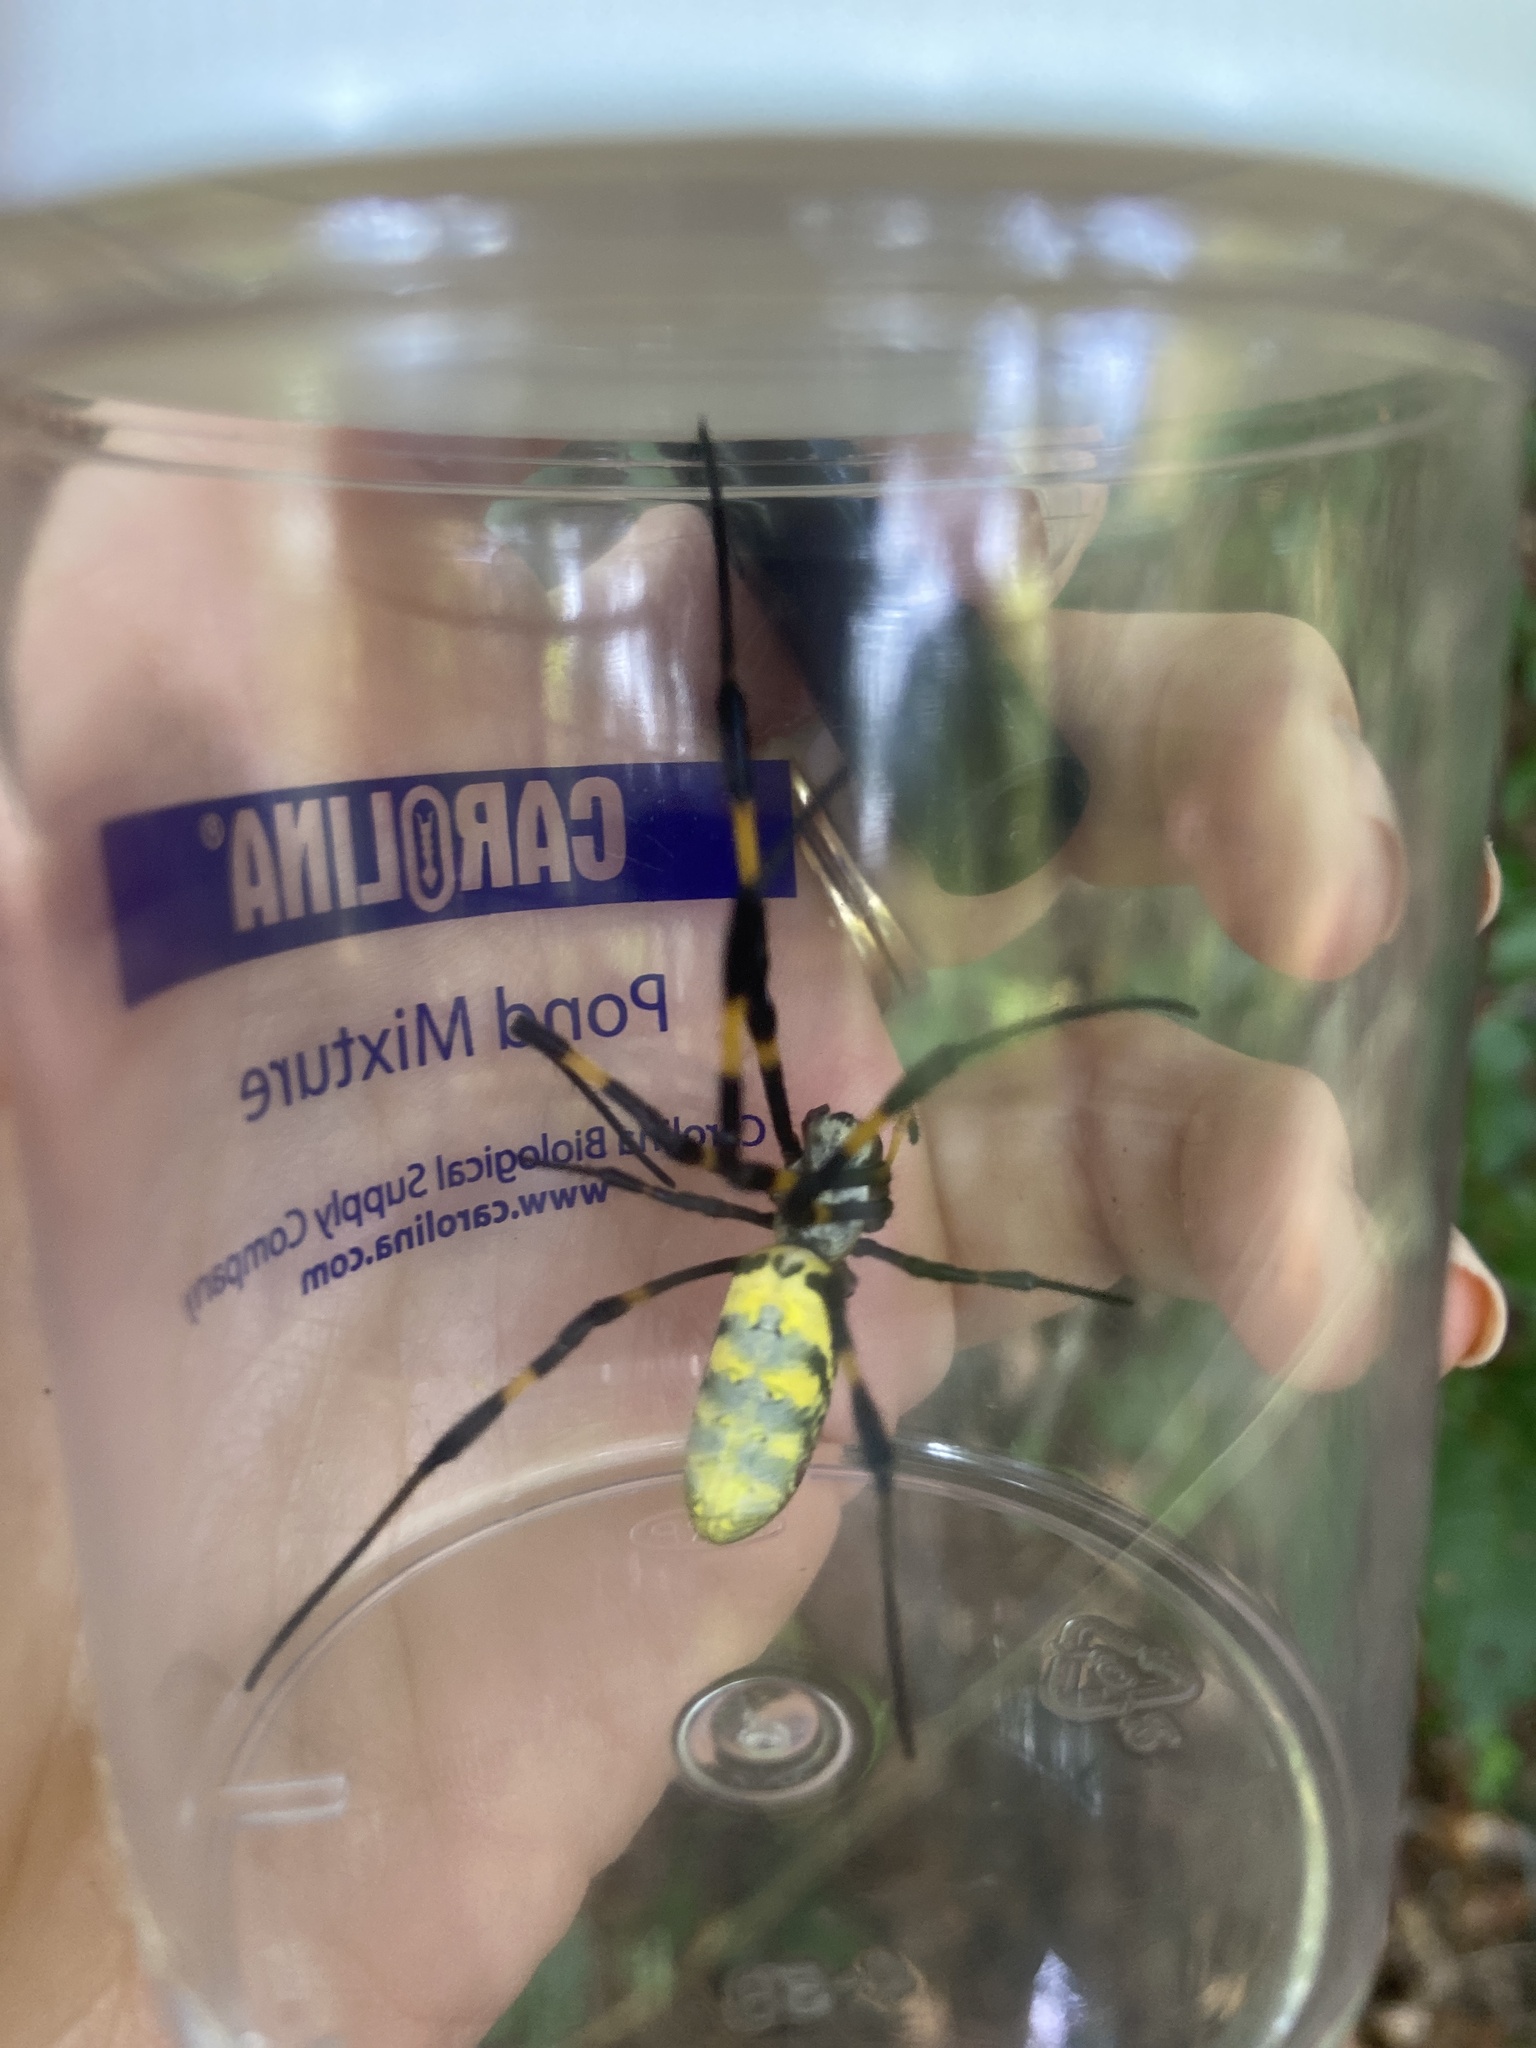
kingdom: Animalia
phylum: Arthropoda
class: Arachnida
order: Araneae
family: Araneidae
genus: Trichonephila
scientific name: Trichonephila clavata
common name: Jorō spider
